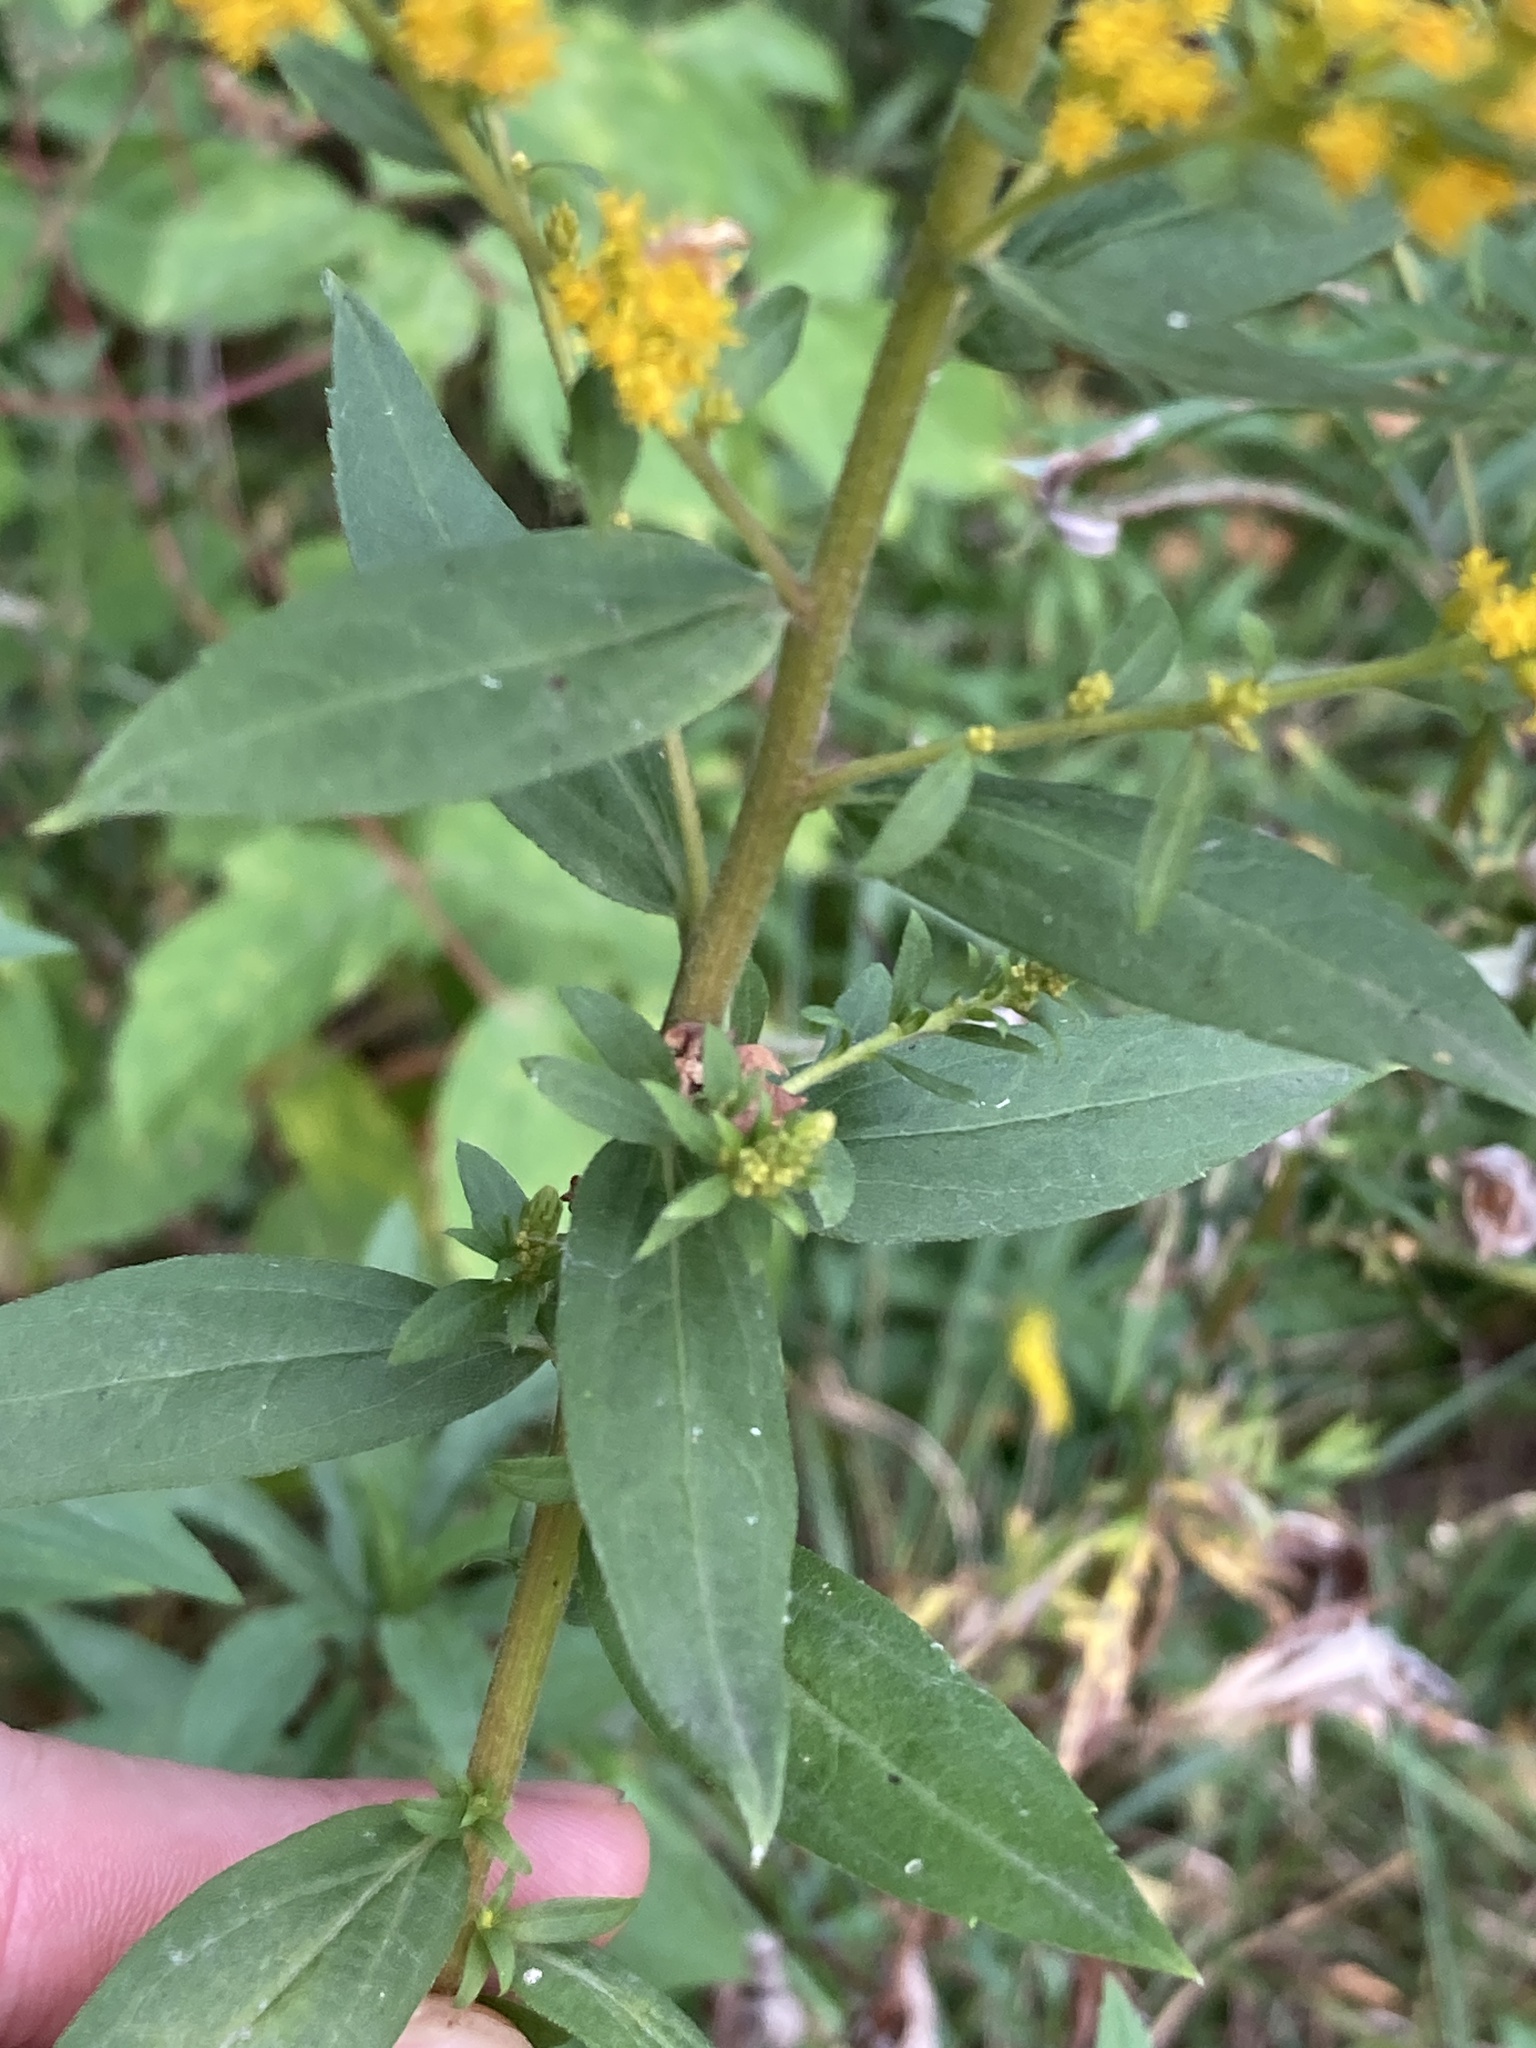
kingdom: Plantae
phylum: Tracheophyta
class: Magnoliopsida
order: Asterales
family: Asteraceae
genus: Solidago
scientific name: Solidago canadensis
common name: Canada goldenrod
